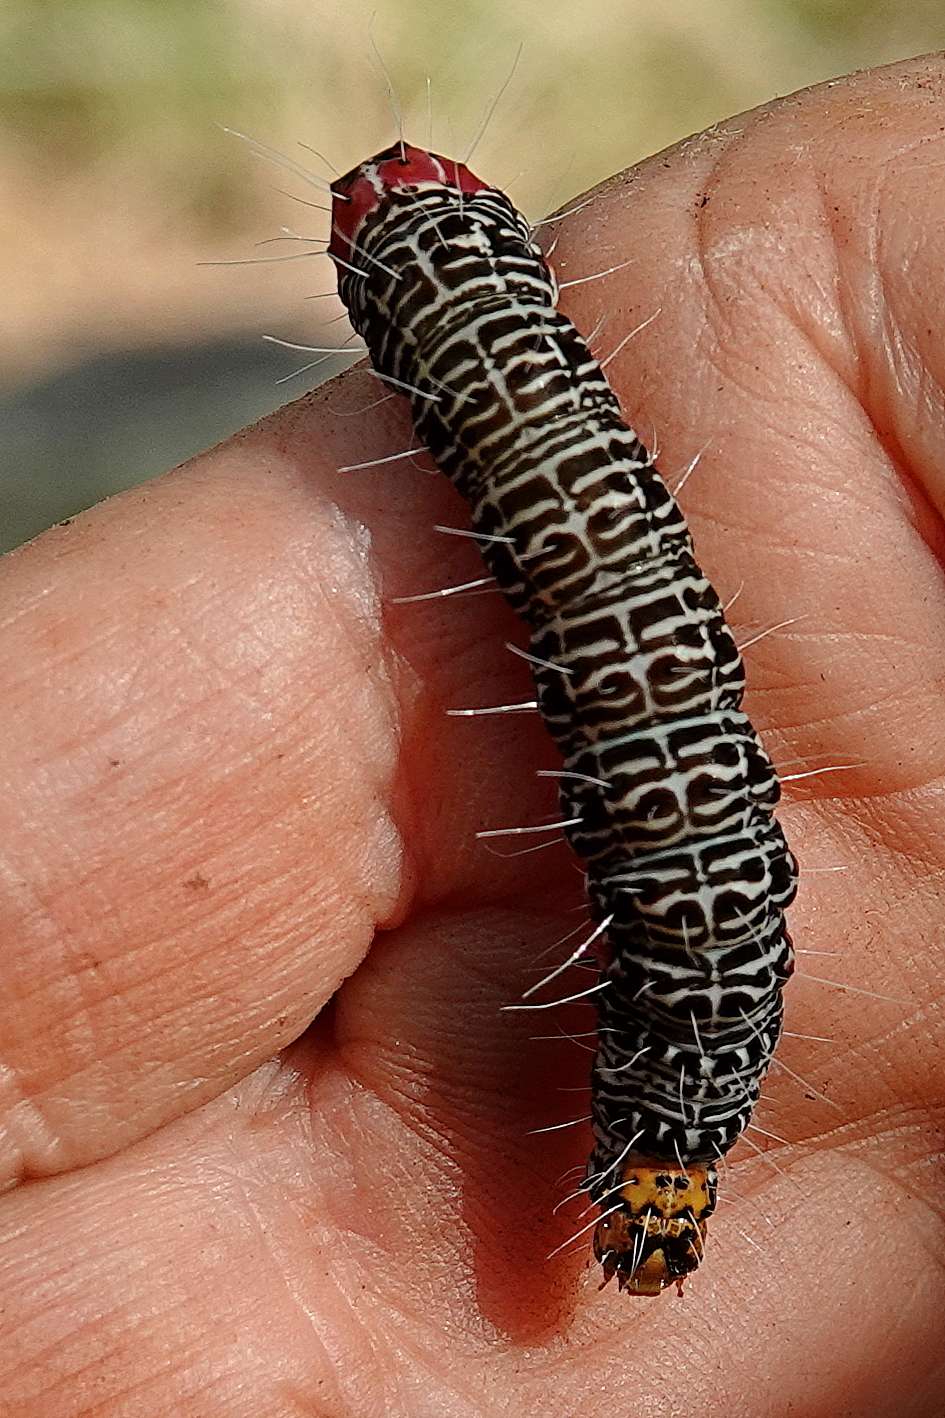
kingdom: Animalia
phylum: Arthropoda
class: Insecta
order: Lepidoptera
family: Noctuidae
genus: Phalaenoides
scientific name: Phalaenoides glycinae
